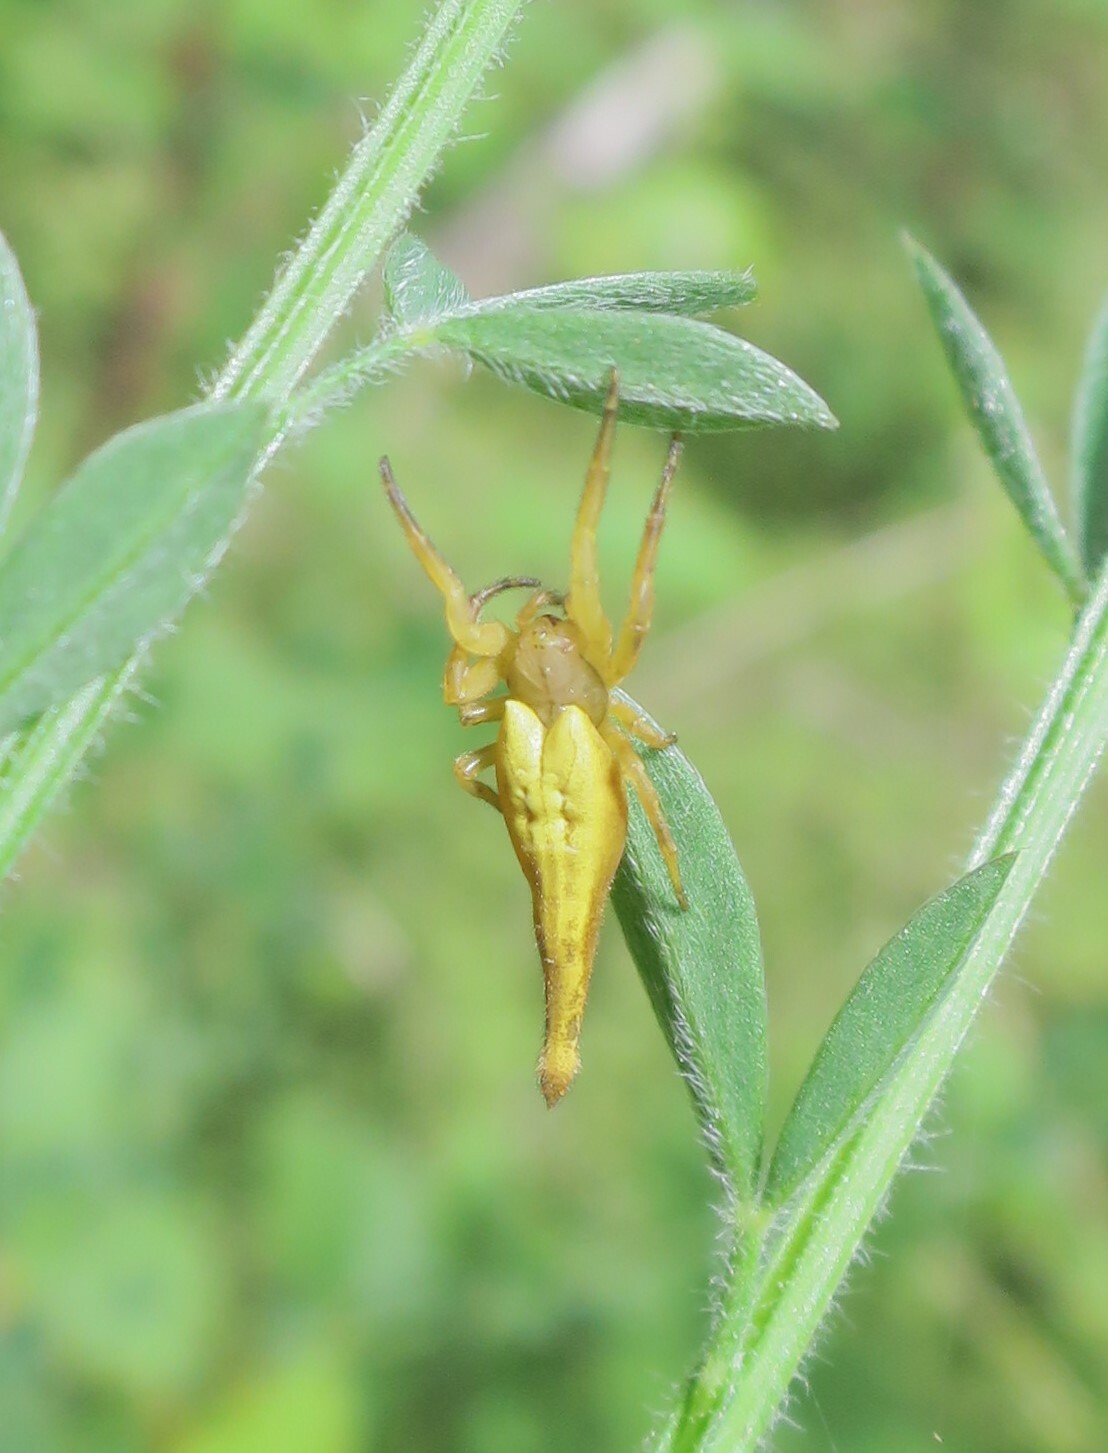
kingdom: Animalia
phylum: Arthropoda
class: Arachnida
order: Araneae
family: Araneidae
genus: Arachnura
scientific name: Arachnura feredayi
